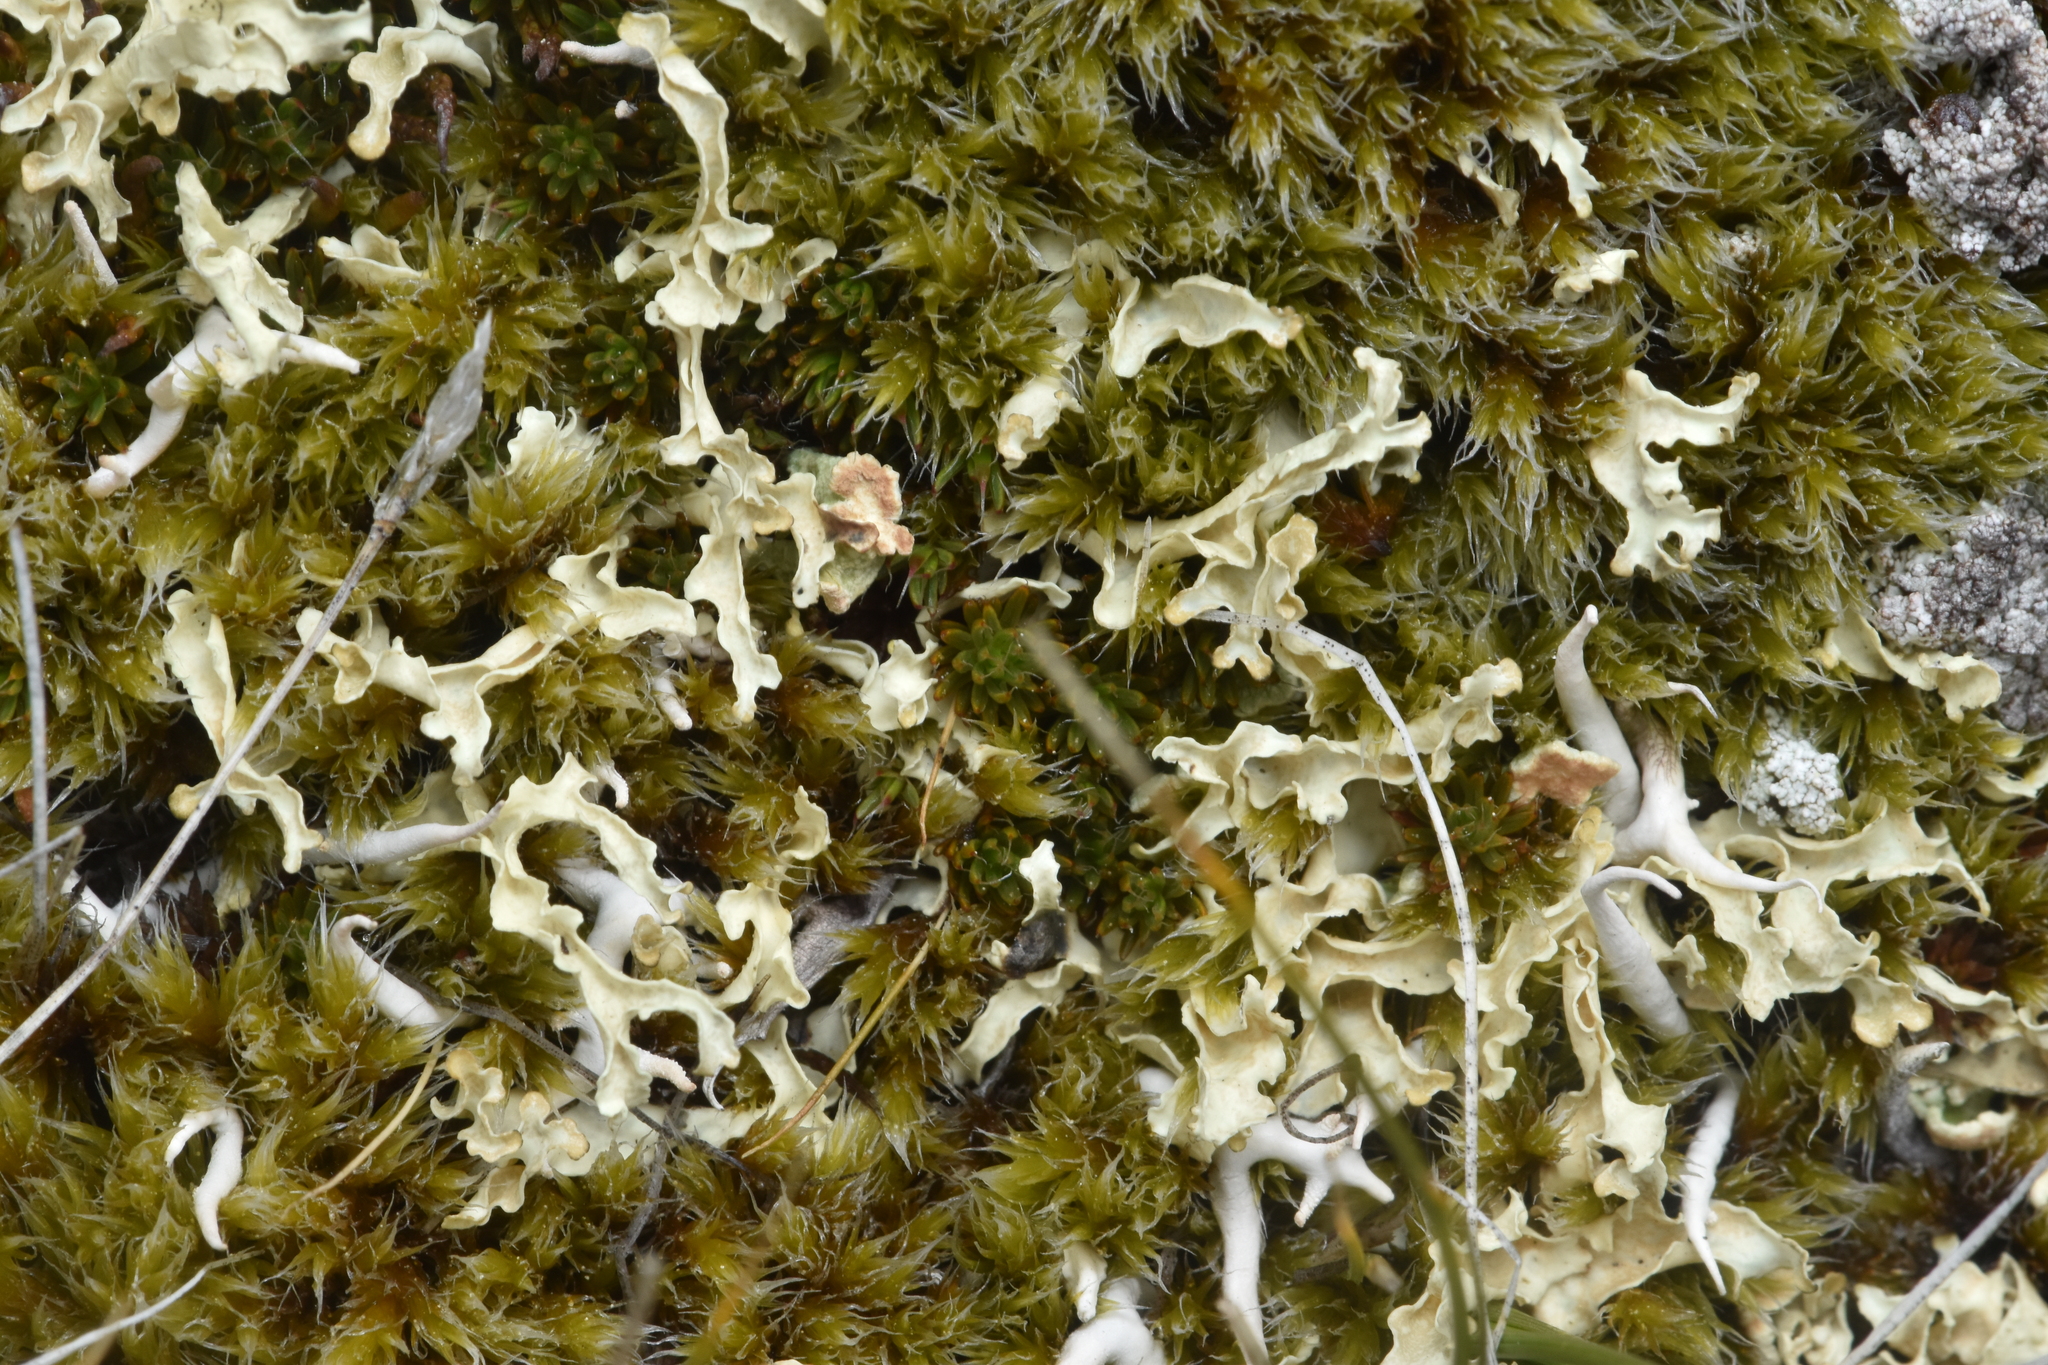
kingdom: Fungi
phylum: Ascomycota
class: Lecanoromycetes
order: Lecanorales
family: Parmeliaceae
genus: Nephromopsis
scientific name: Nephromopsis cucullata
